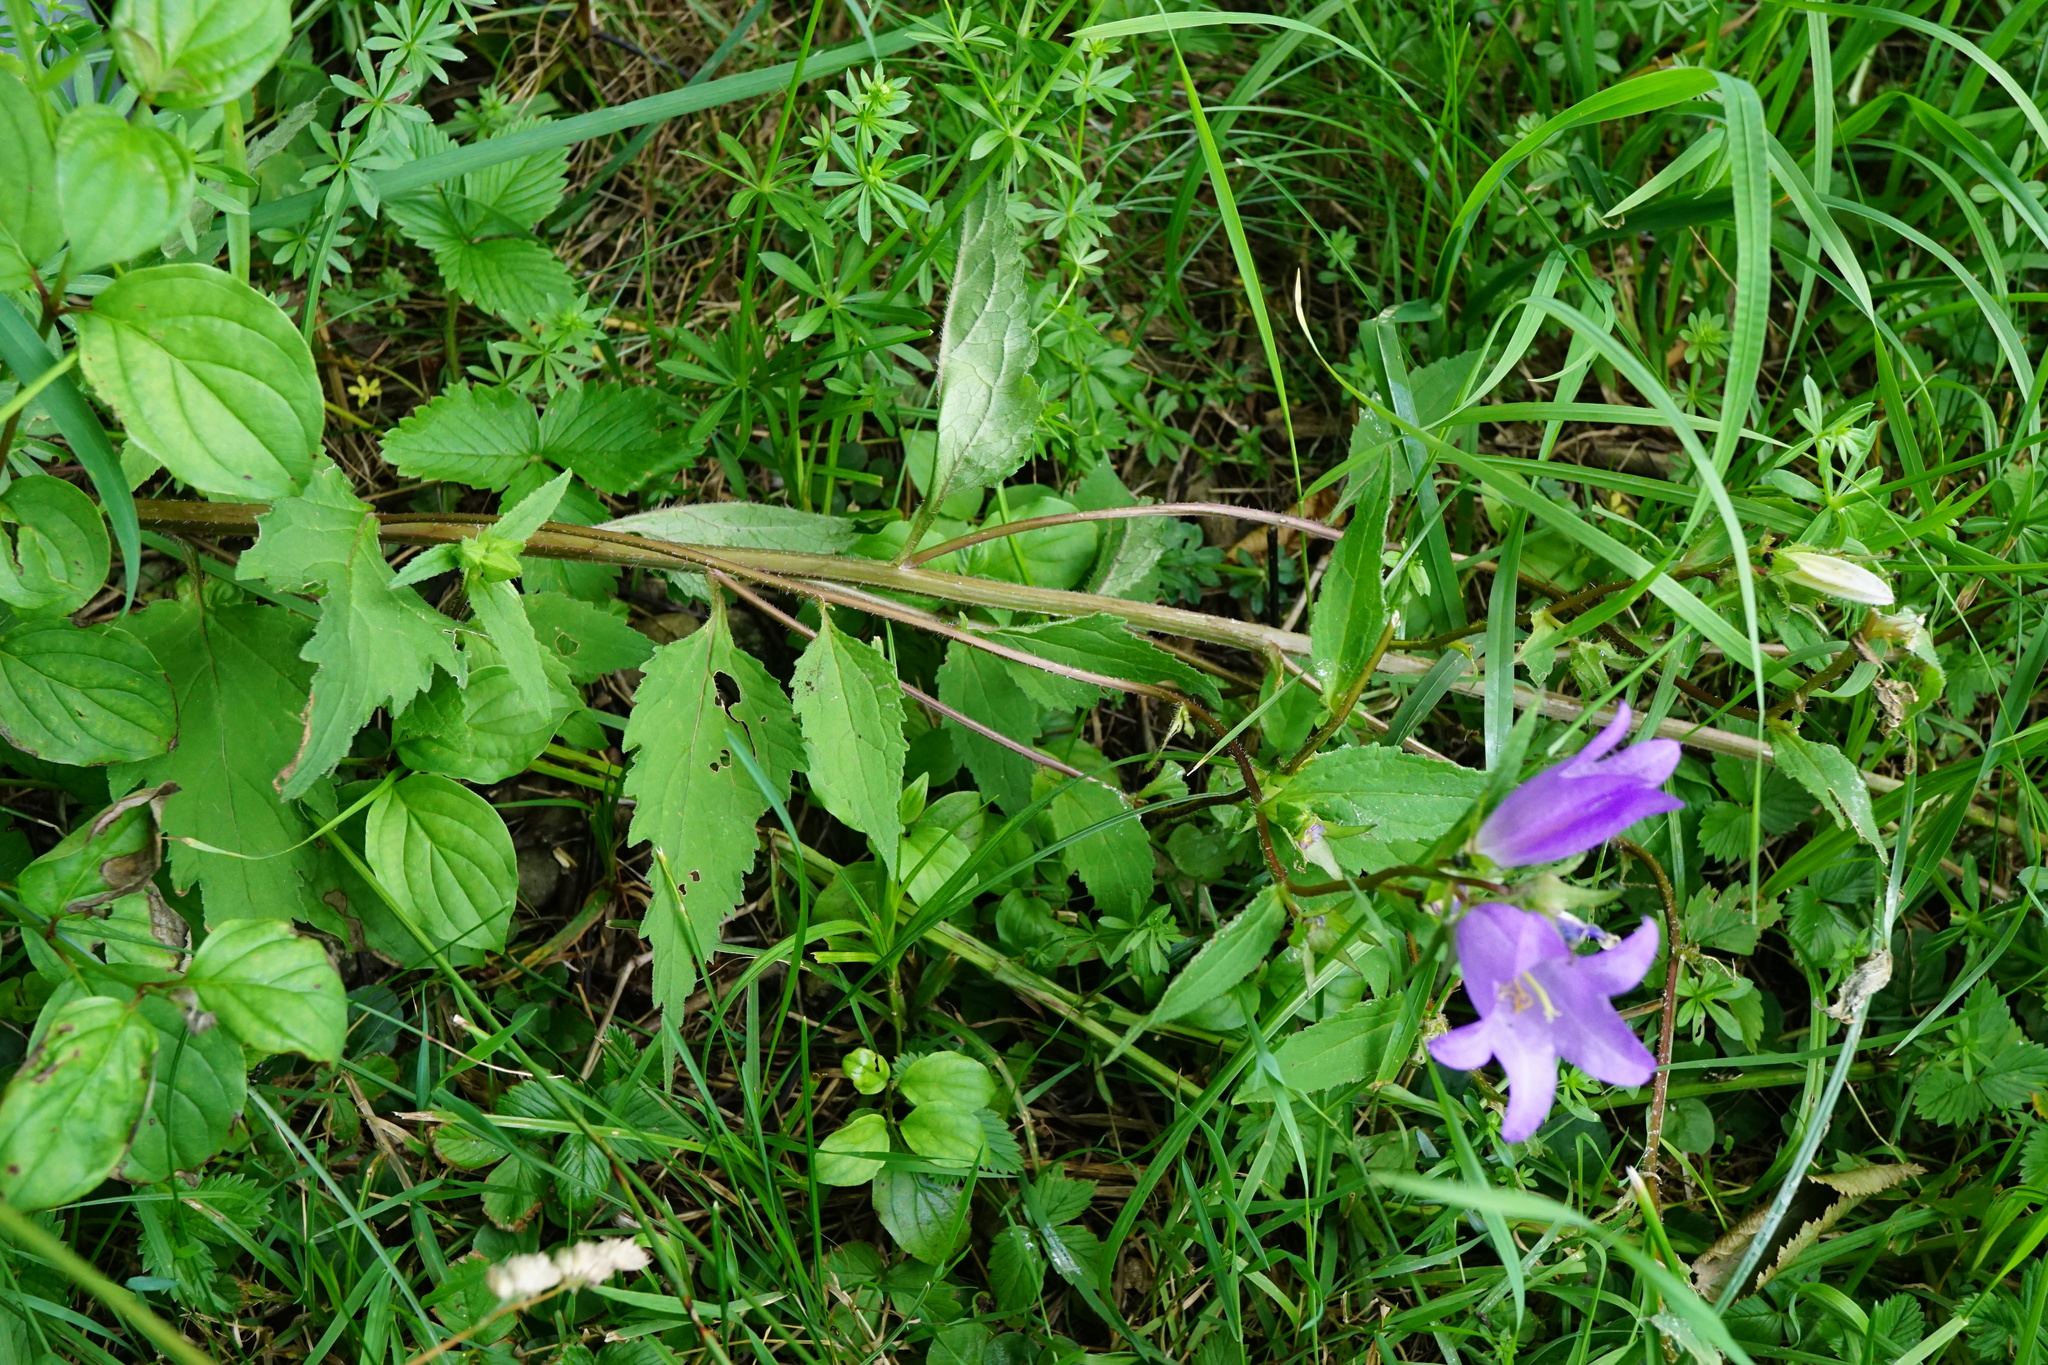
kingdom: Plantae
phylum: Tracheophyta
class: Magnoliopsida
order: Asterales
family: Campanulaceae
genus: Campanula
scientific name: Campanula trachelium
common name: Nettle-leaved bellflower
